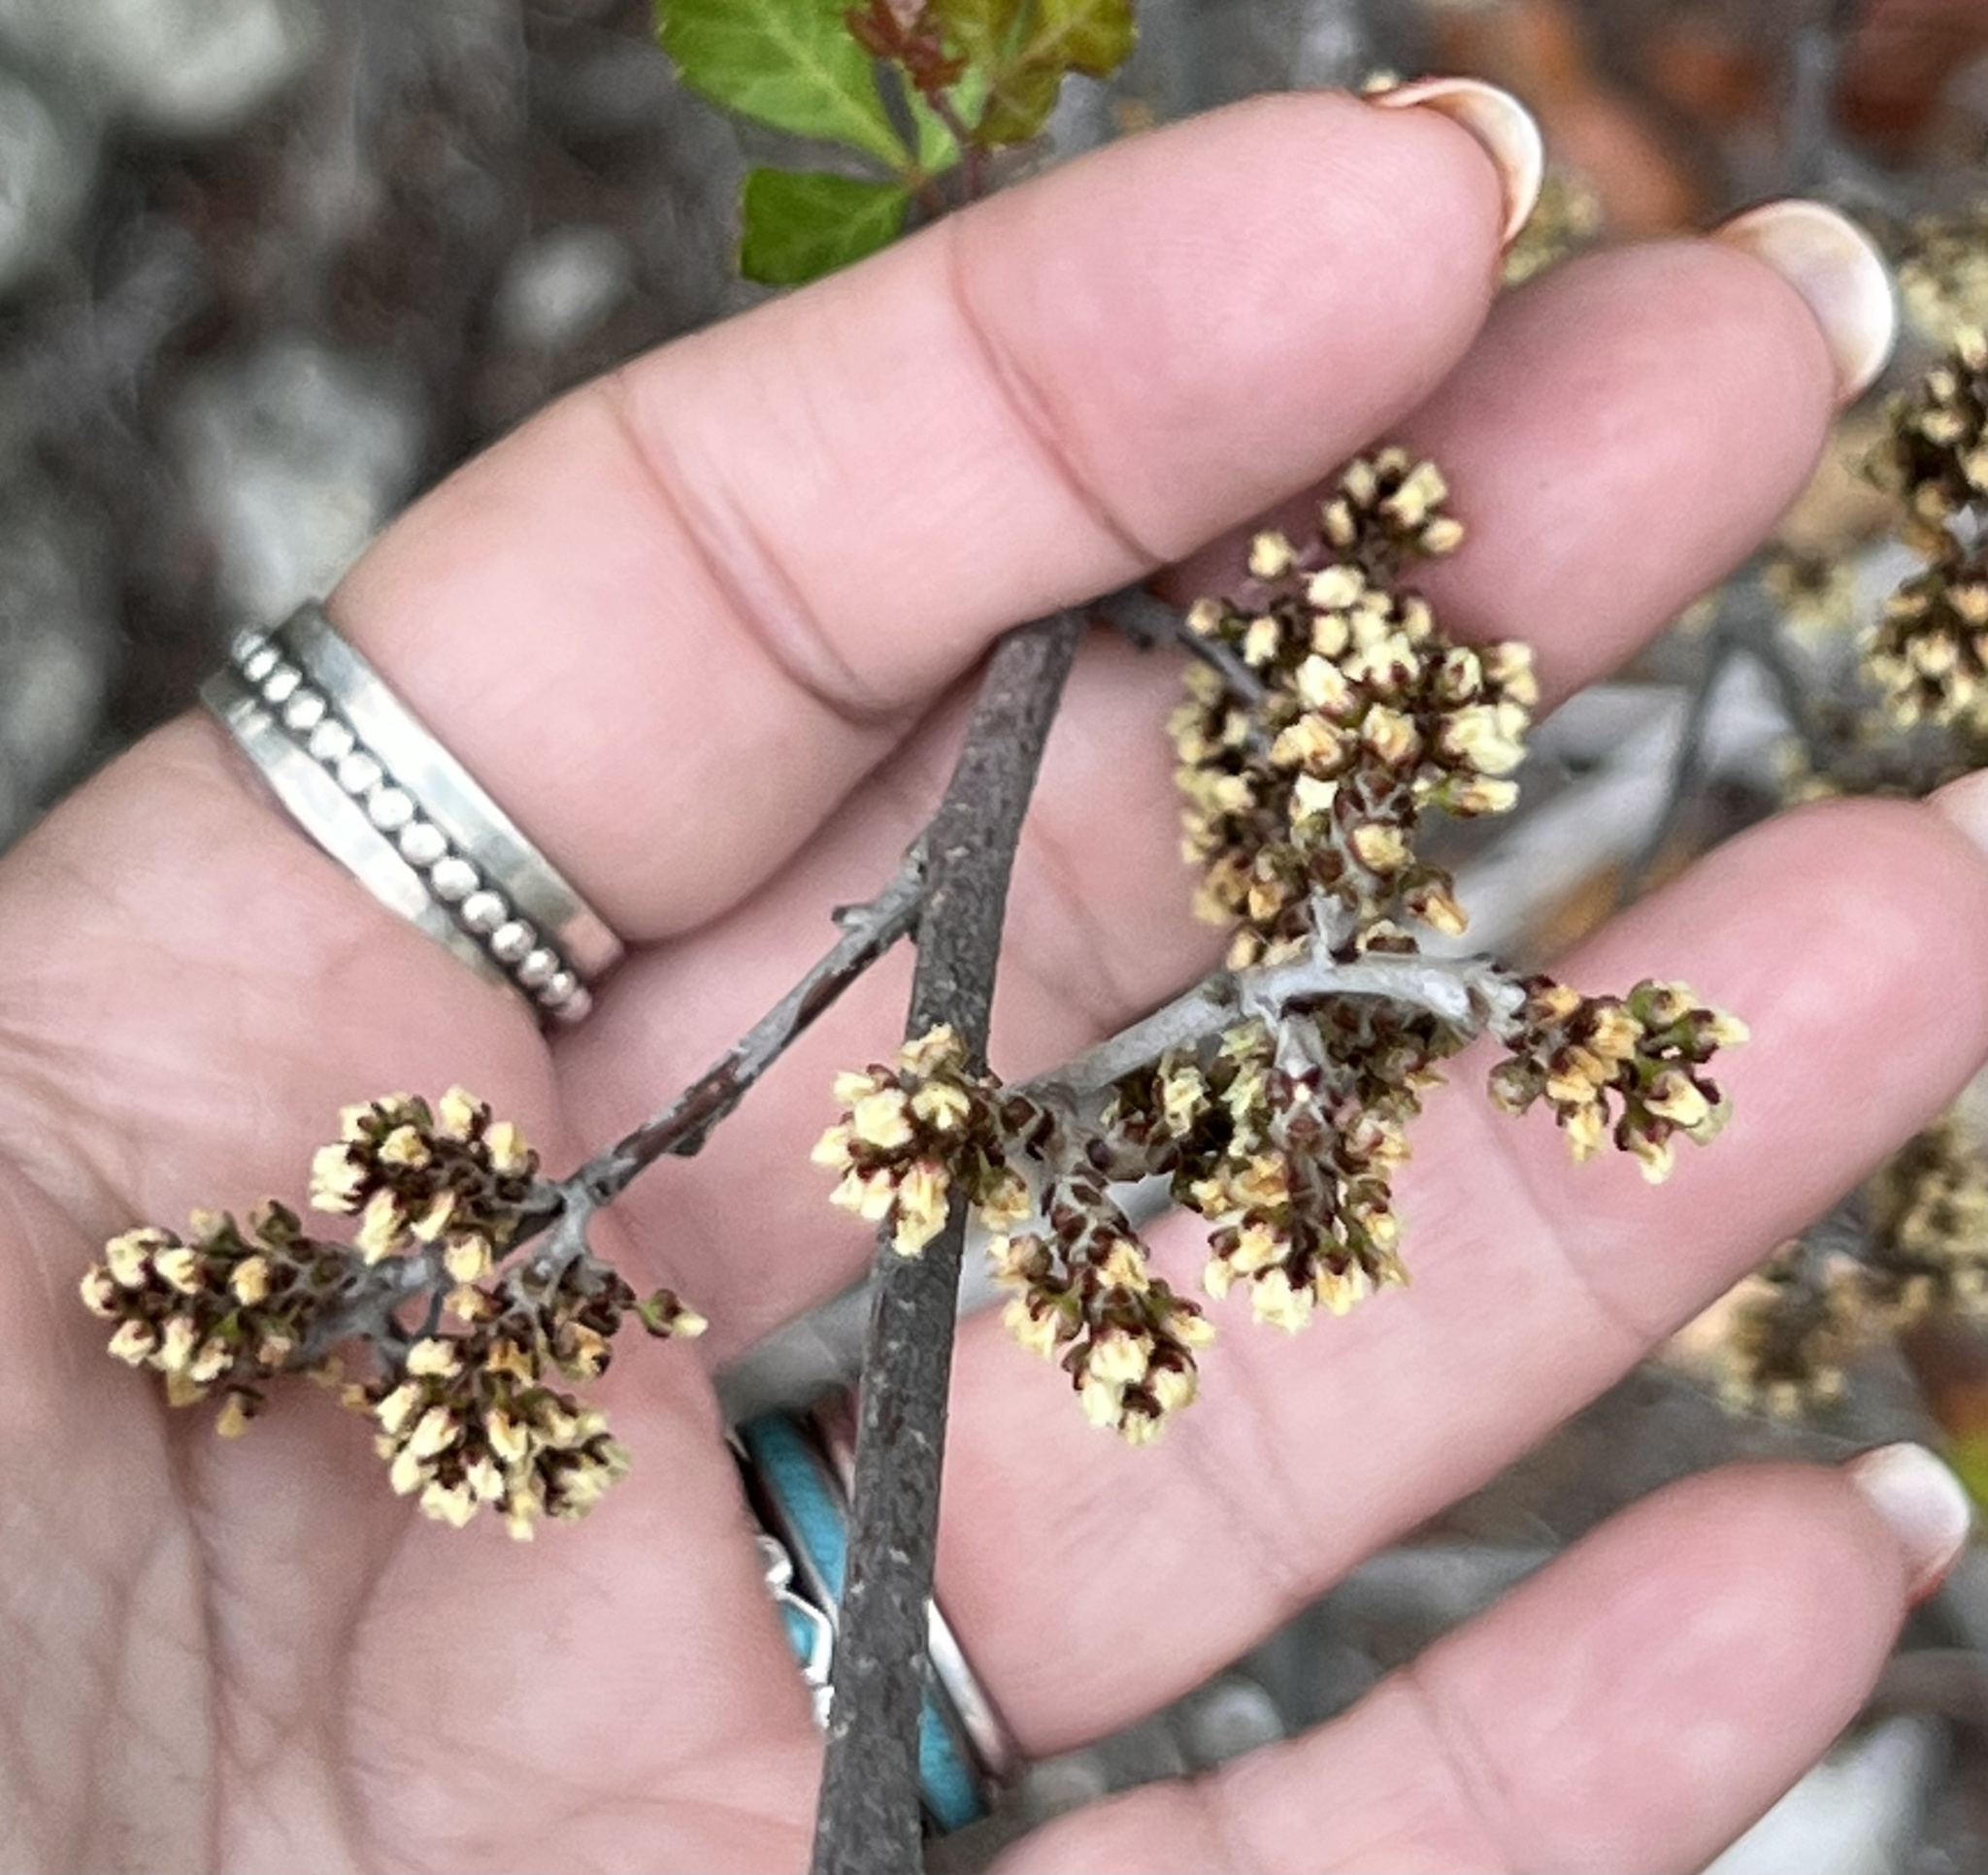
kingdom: Plantae
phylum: Tracheophyta
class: Magnoliopsida
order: Sapindales
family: Anacardiaceae
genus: Rhus
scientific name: Rhus aromatica
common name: Aromatic sumac
